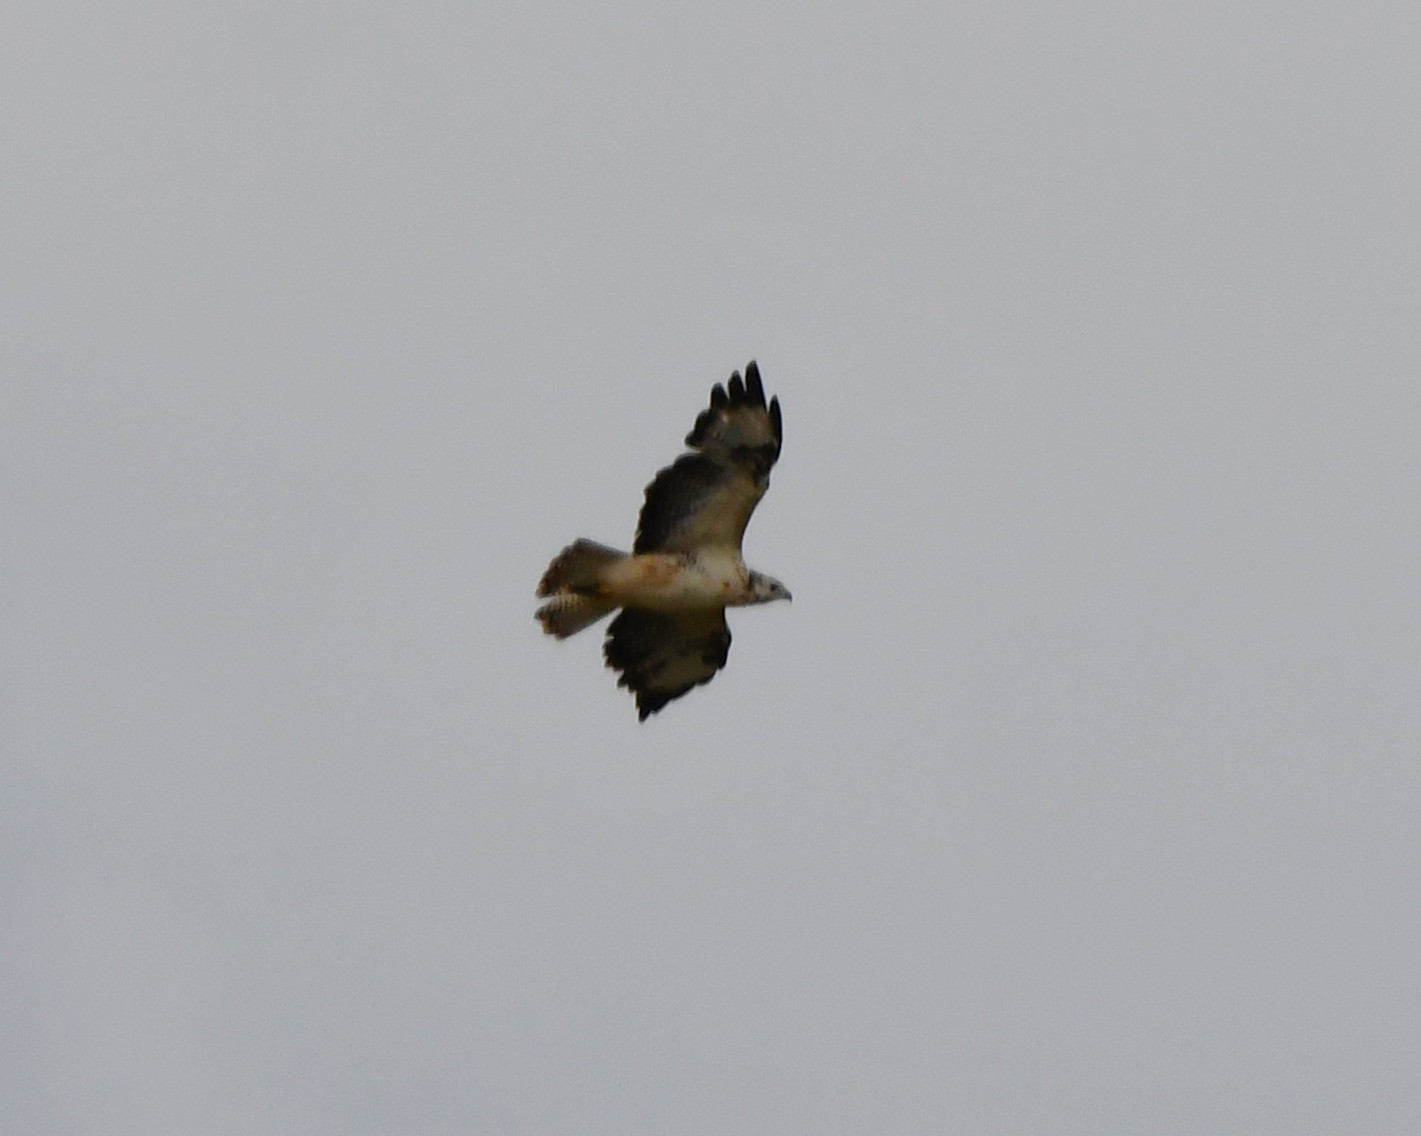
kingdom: Animalia
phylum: Chordata
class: Aves
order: Accipitriformes
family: Accipitridae
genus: Buteo
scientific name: Buteo buteo
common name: Common buzzard
